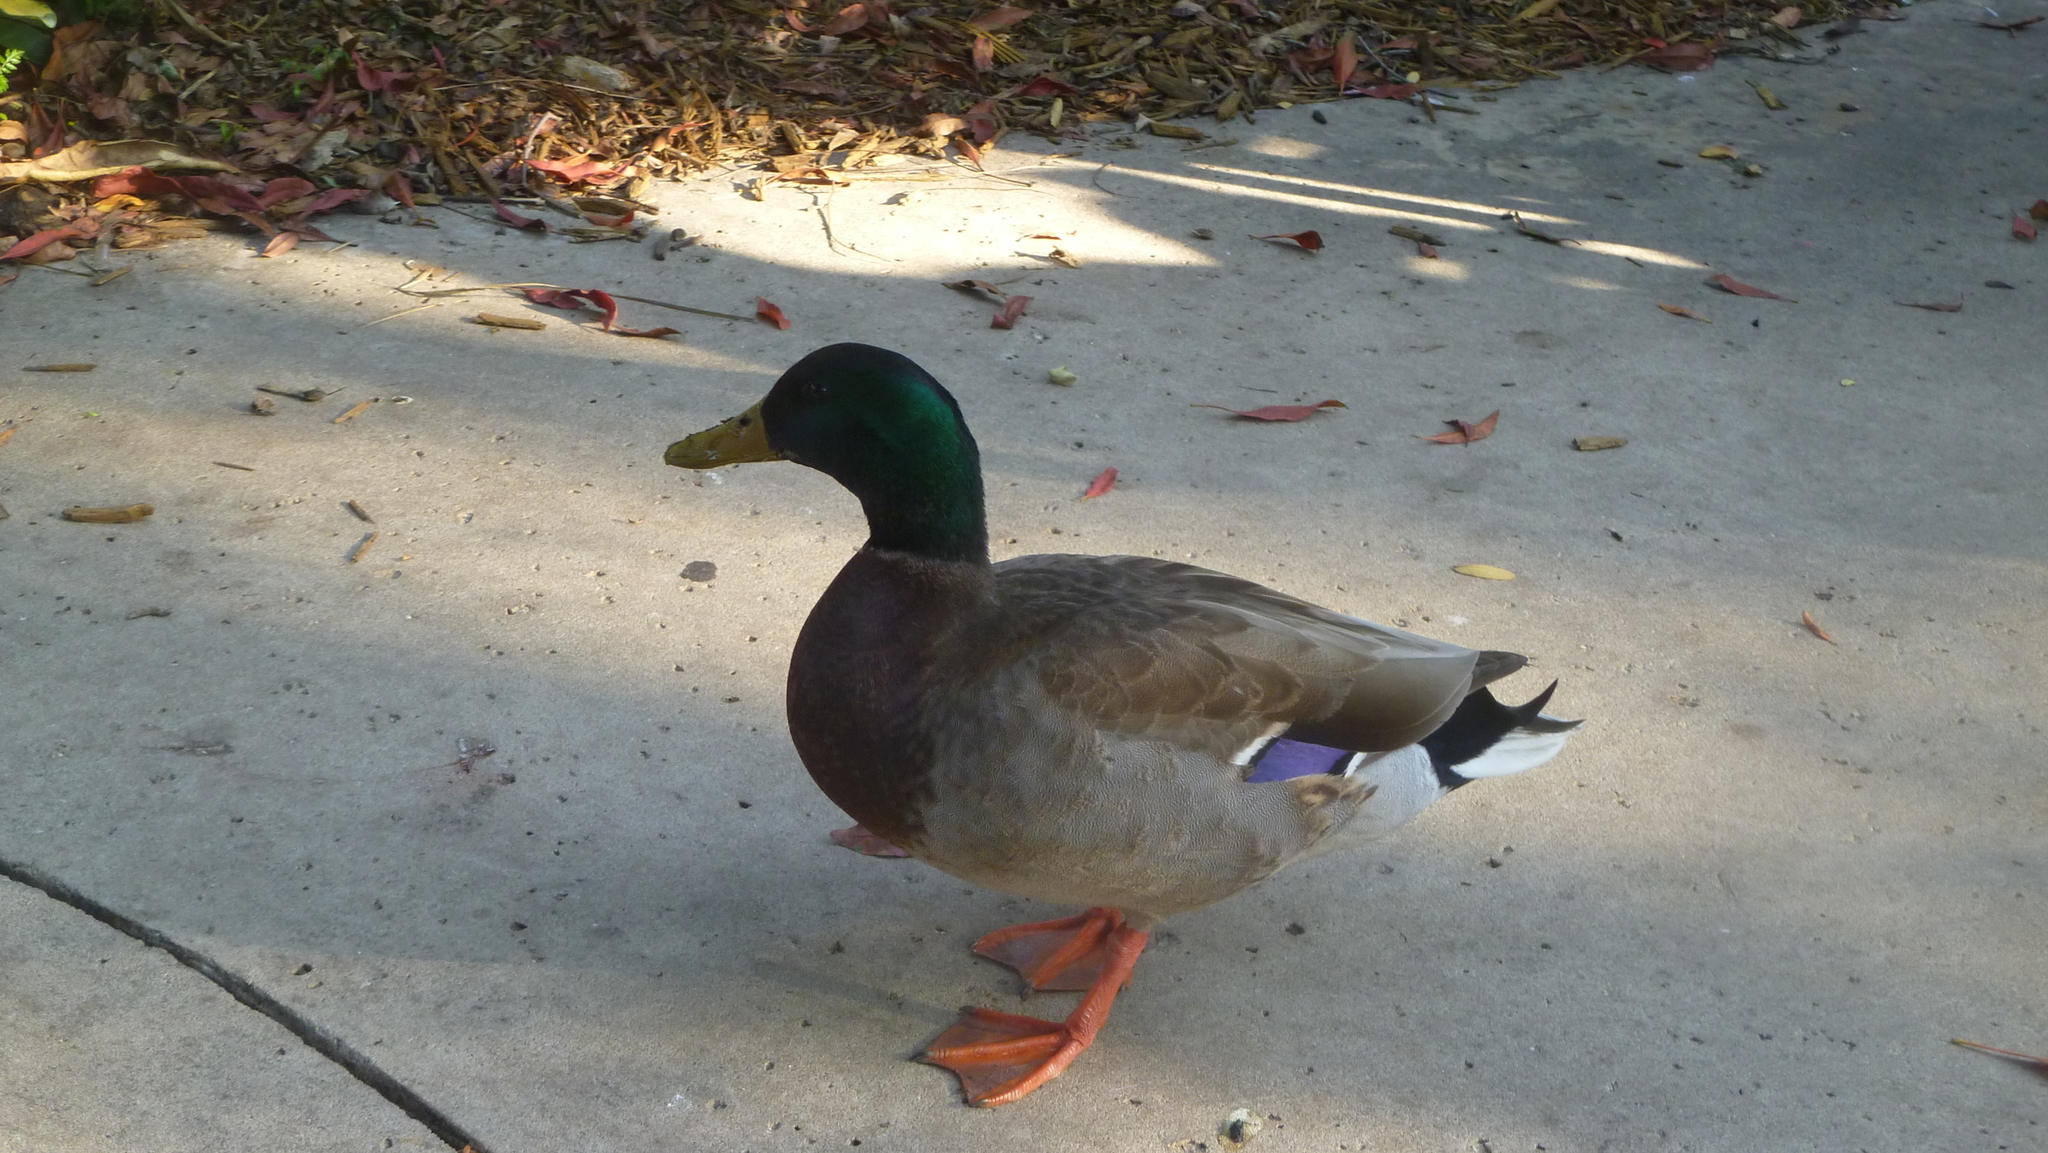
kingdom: Animalia
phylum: Chordata
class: Aves
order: Anseriformes
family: Anatidae
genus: Anas
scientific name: Anas platyrhynchos
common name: Mallard
